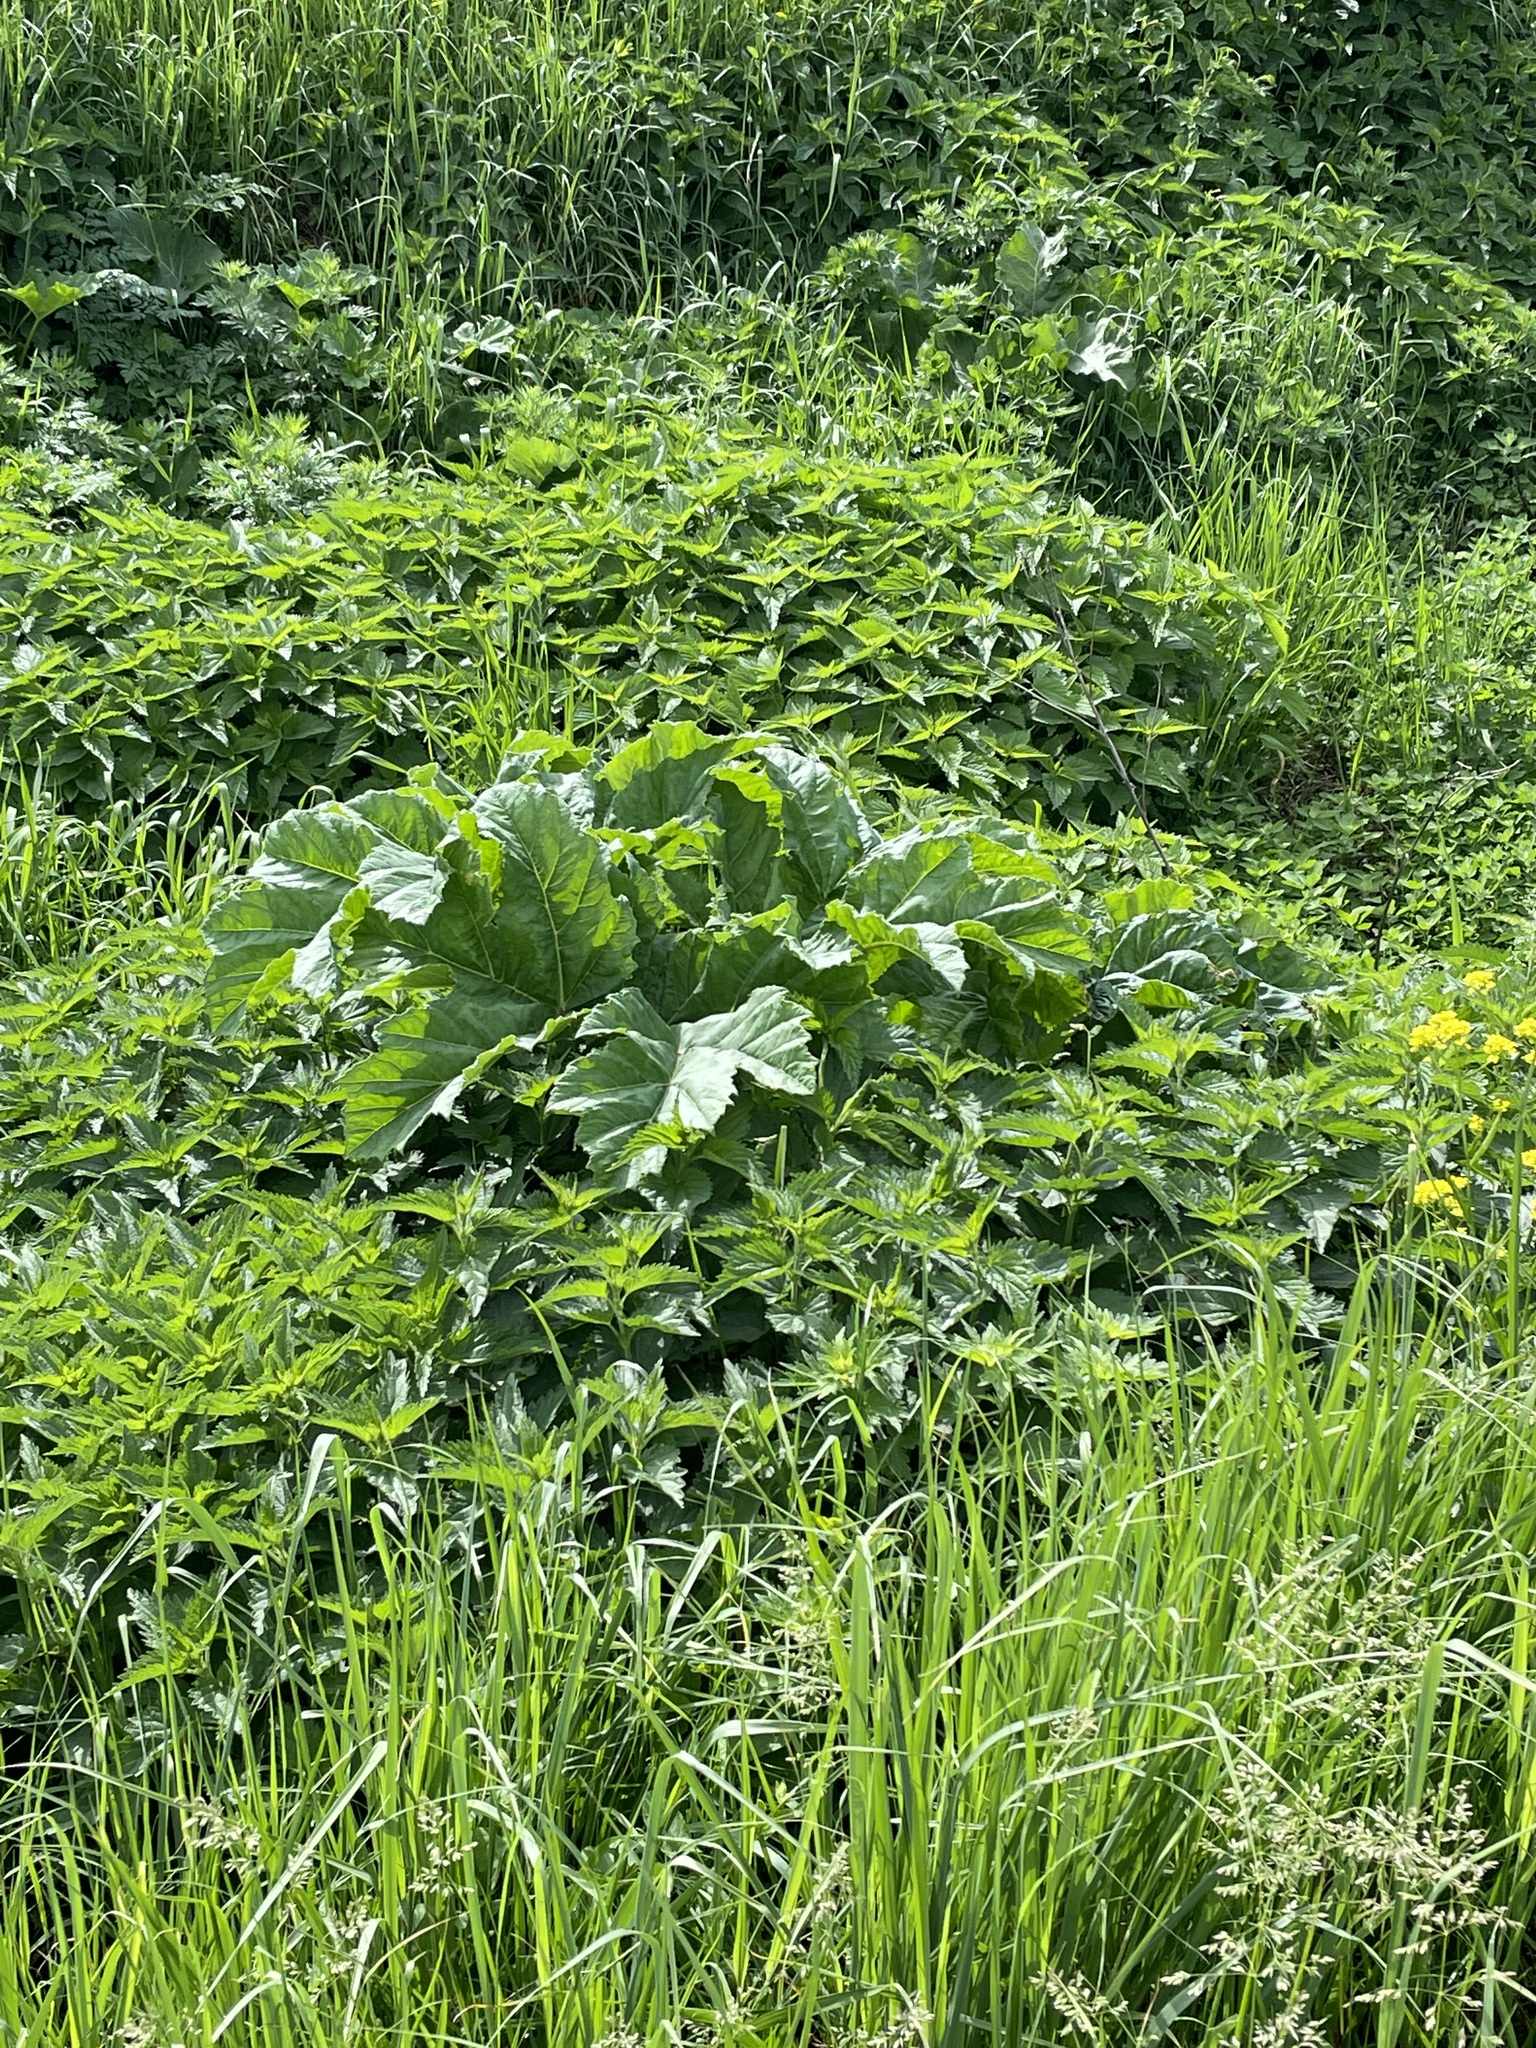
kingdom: Plantae
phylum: Tracheophyta
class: Magnoliopsida
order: Apiales
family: Apiaceae
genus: Heracleum
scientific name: Heracleum sosnowskyi
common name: Sosnowsky's hogweed
